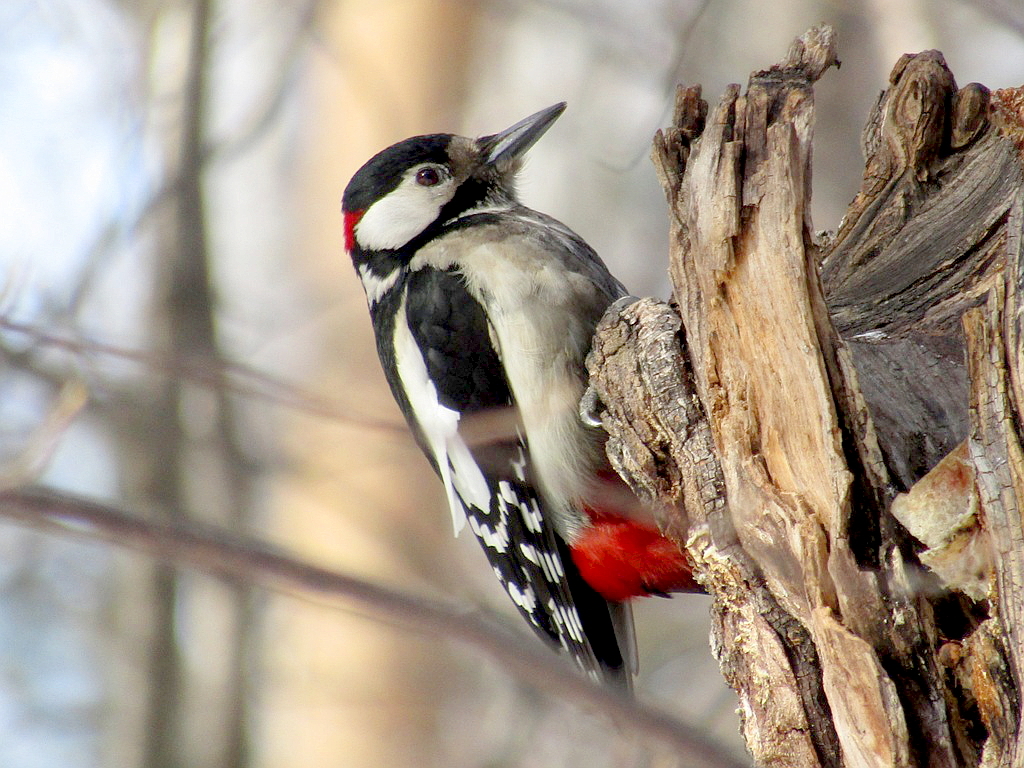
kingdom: Animalia
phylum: Chordata
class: Aves
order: Piciformes
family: Picidae
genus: Dendrocopos
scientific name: Dendrocopos major
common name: Great spotted woodpecker
